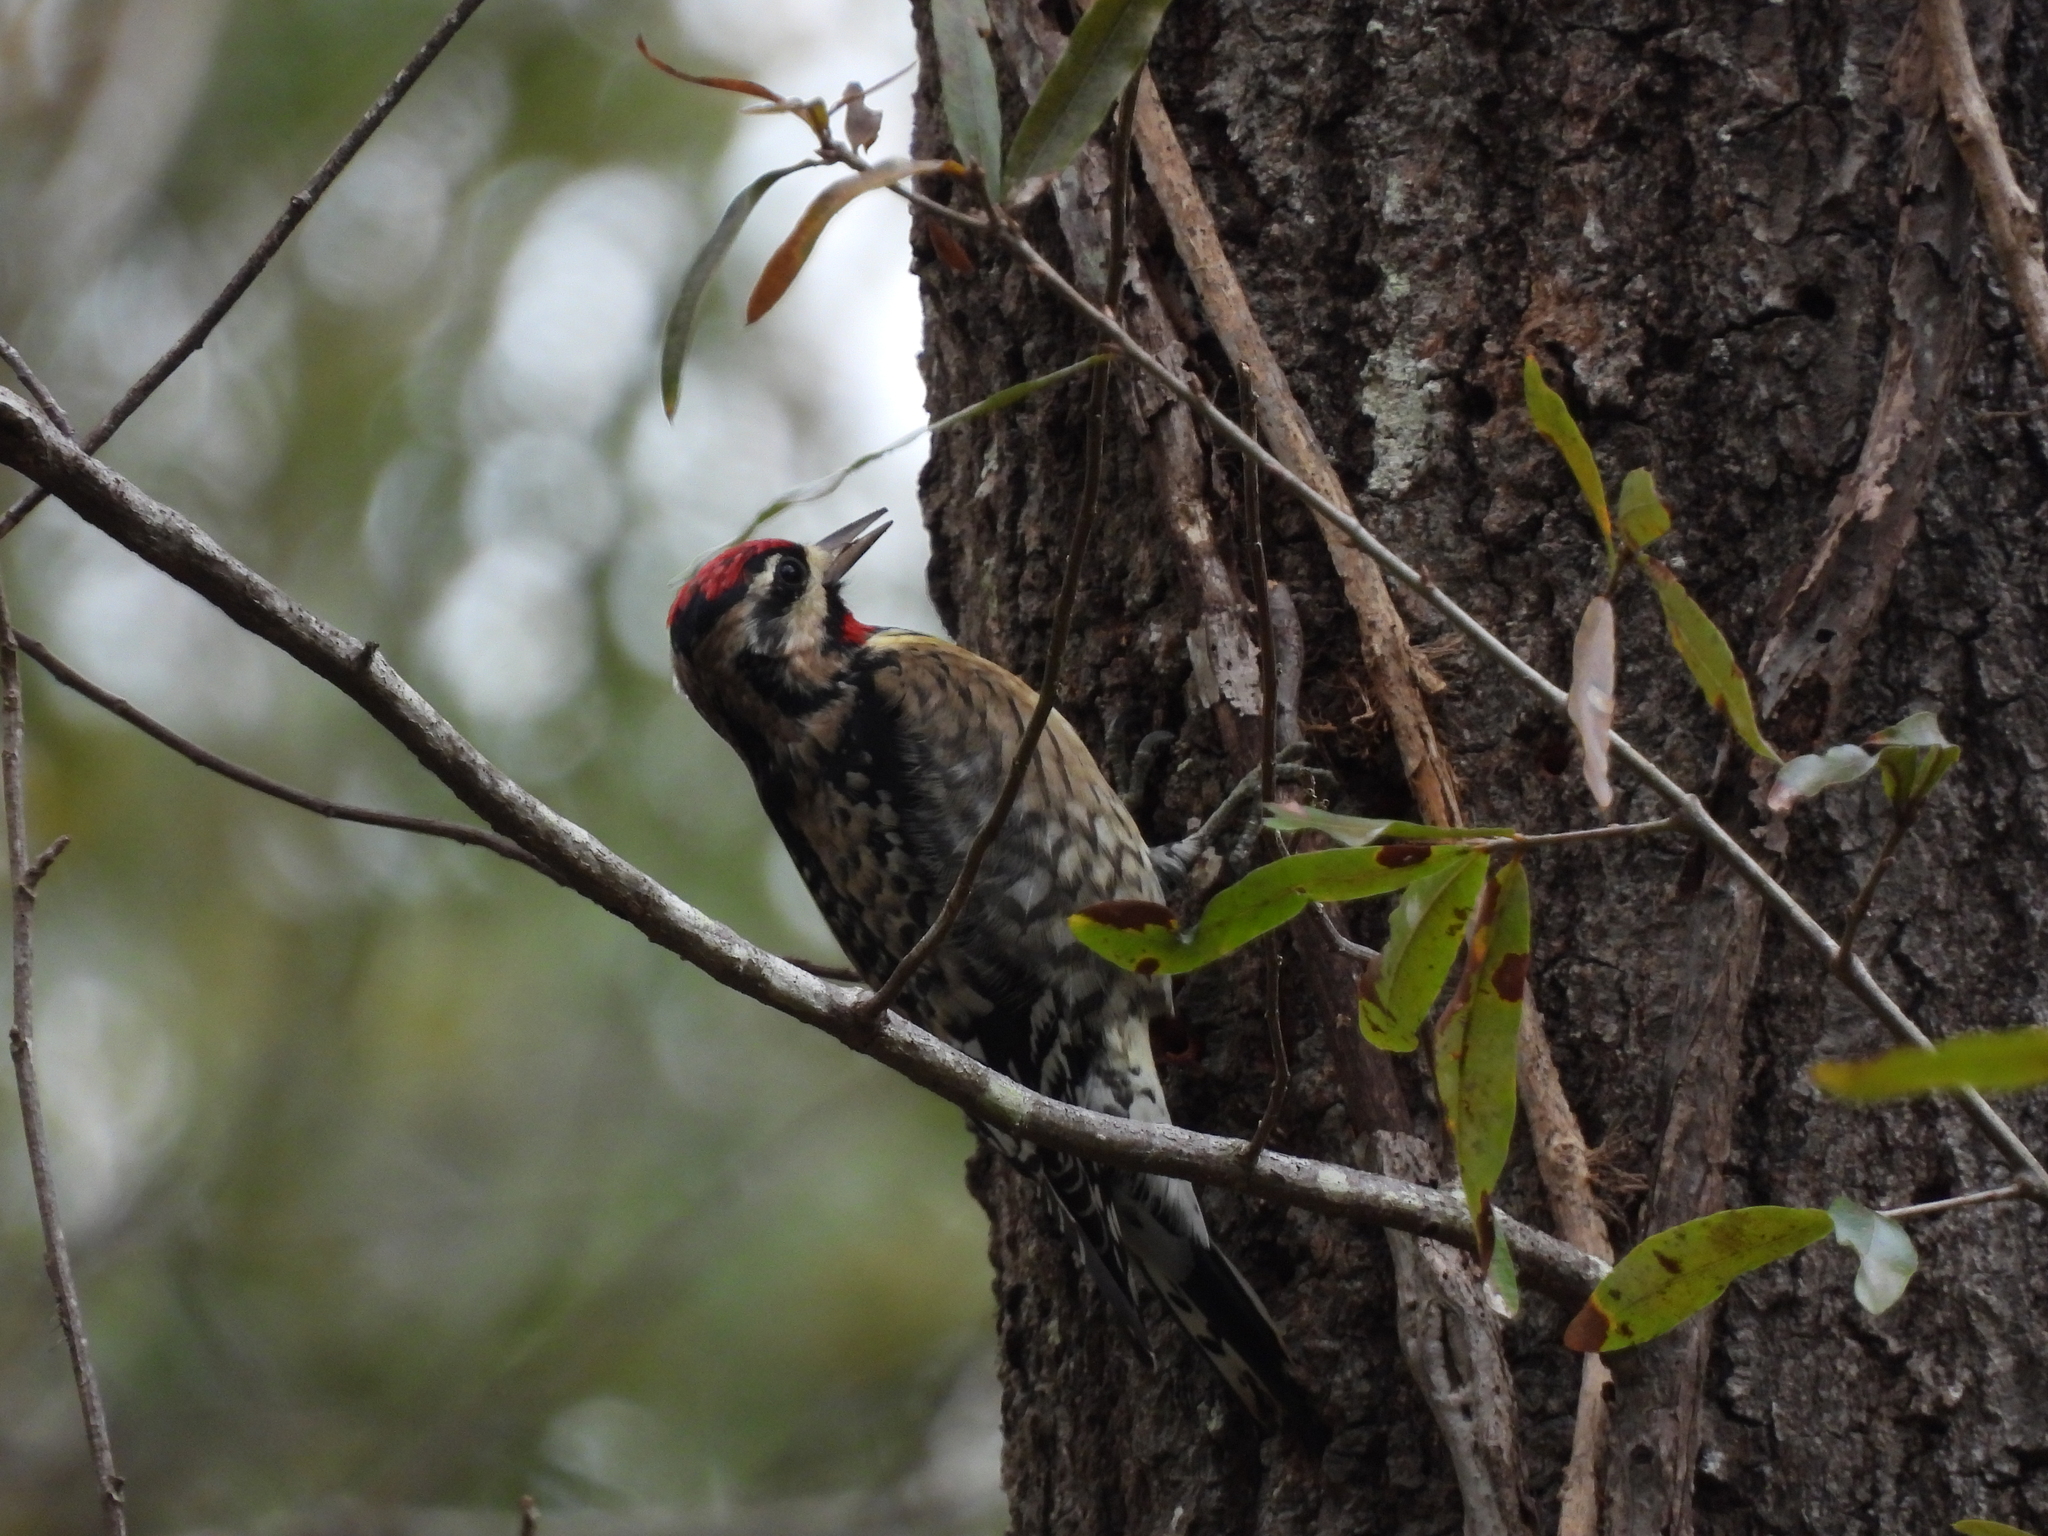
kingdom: Animalia
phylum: Chordata
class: Aves
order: Piciformes
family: Picidae
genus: Sphyrapicus
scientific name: Sphyrapicus varius
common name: Yellow-bellied sapsucker
